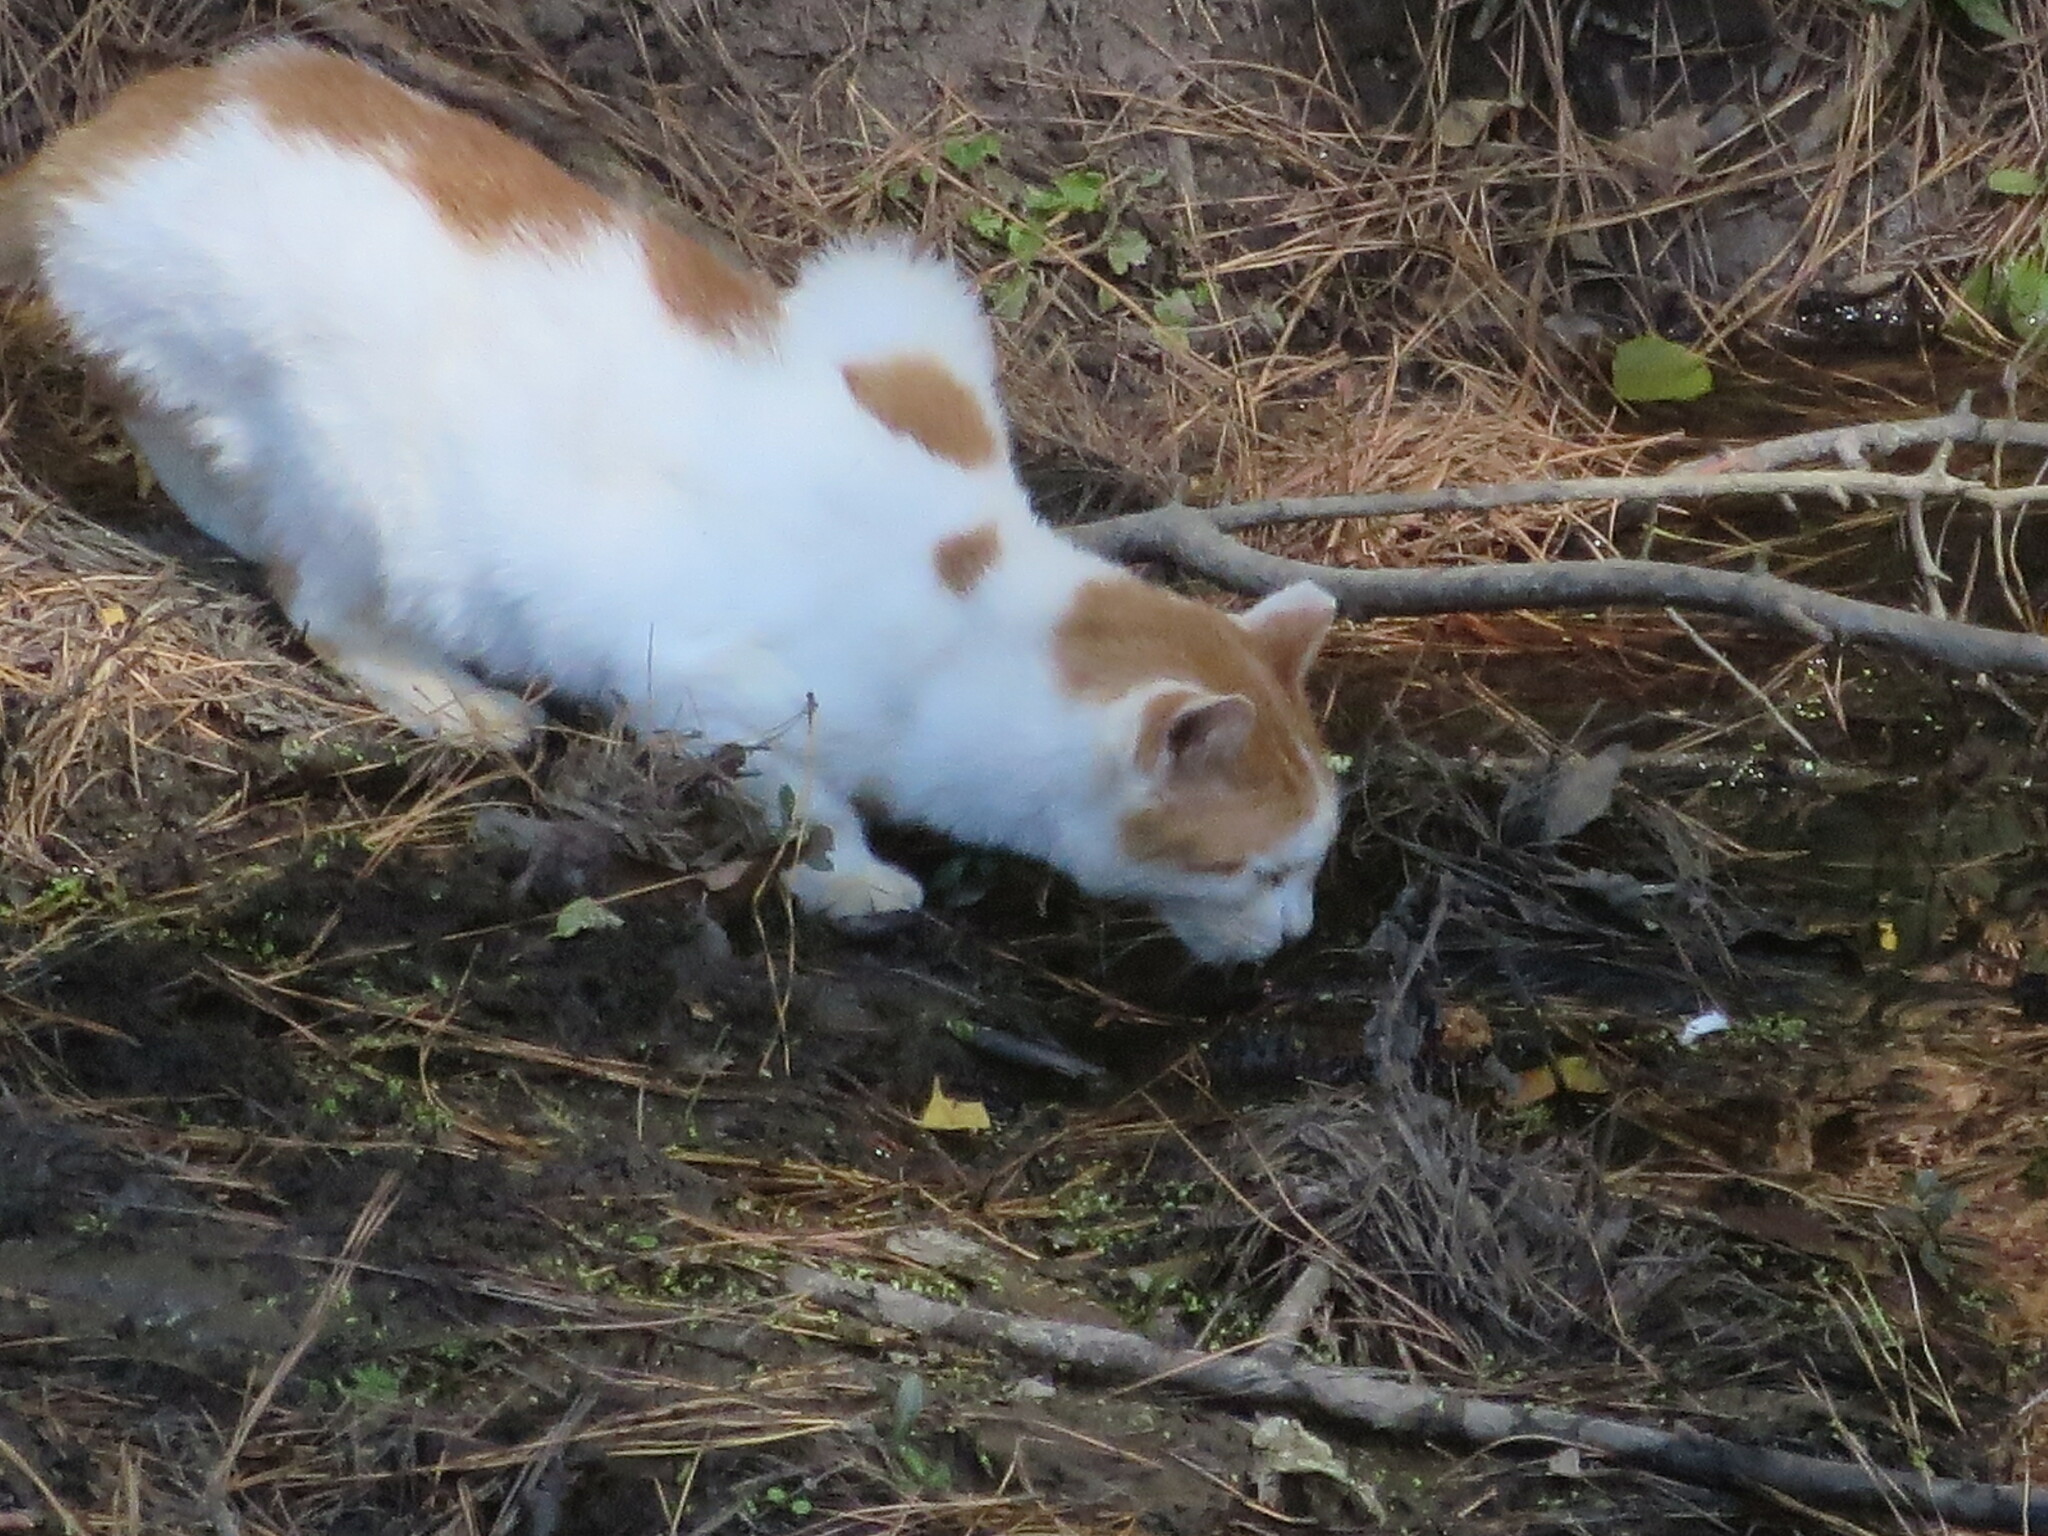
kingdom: Animalia
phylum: Chordata
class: Mammalia
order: Carnivora
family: Felidae
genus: Felis
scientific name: Felis catus
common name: Domestic cat
